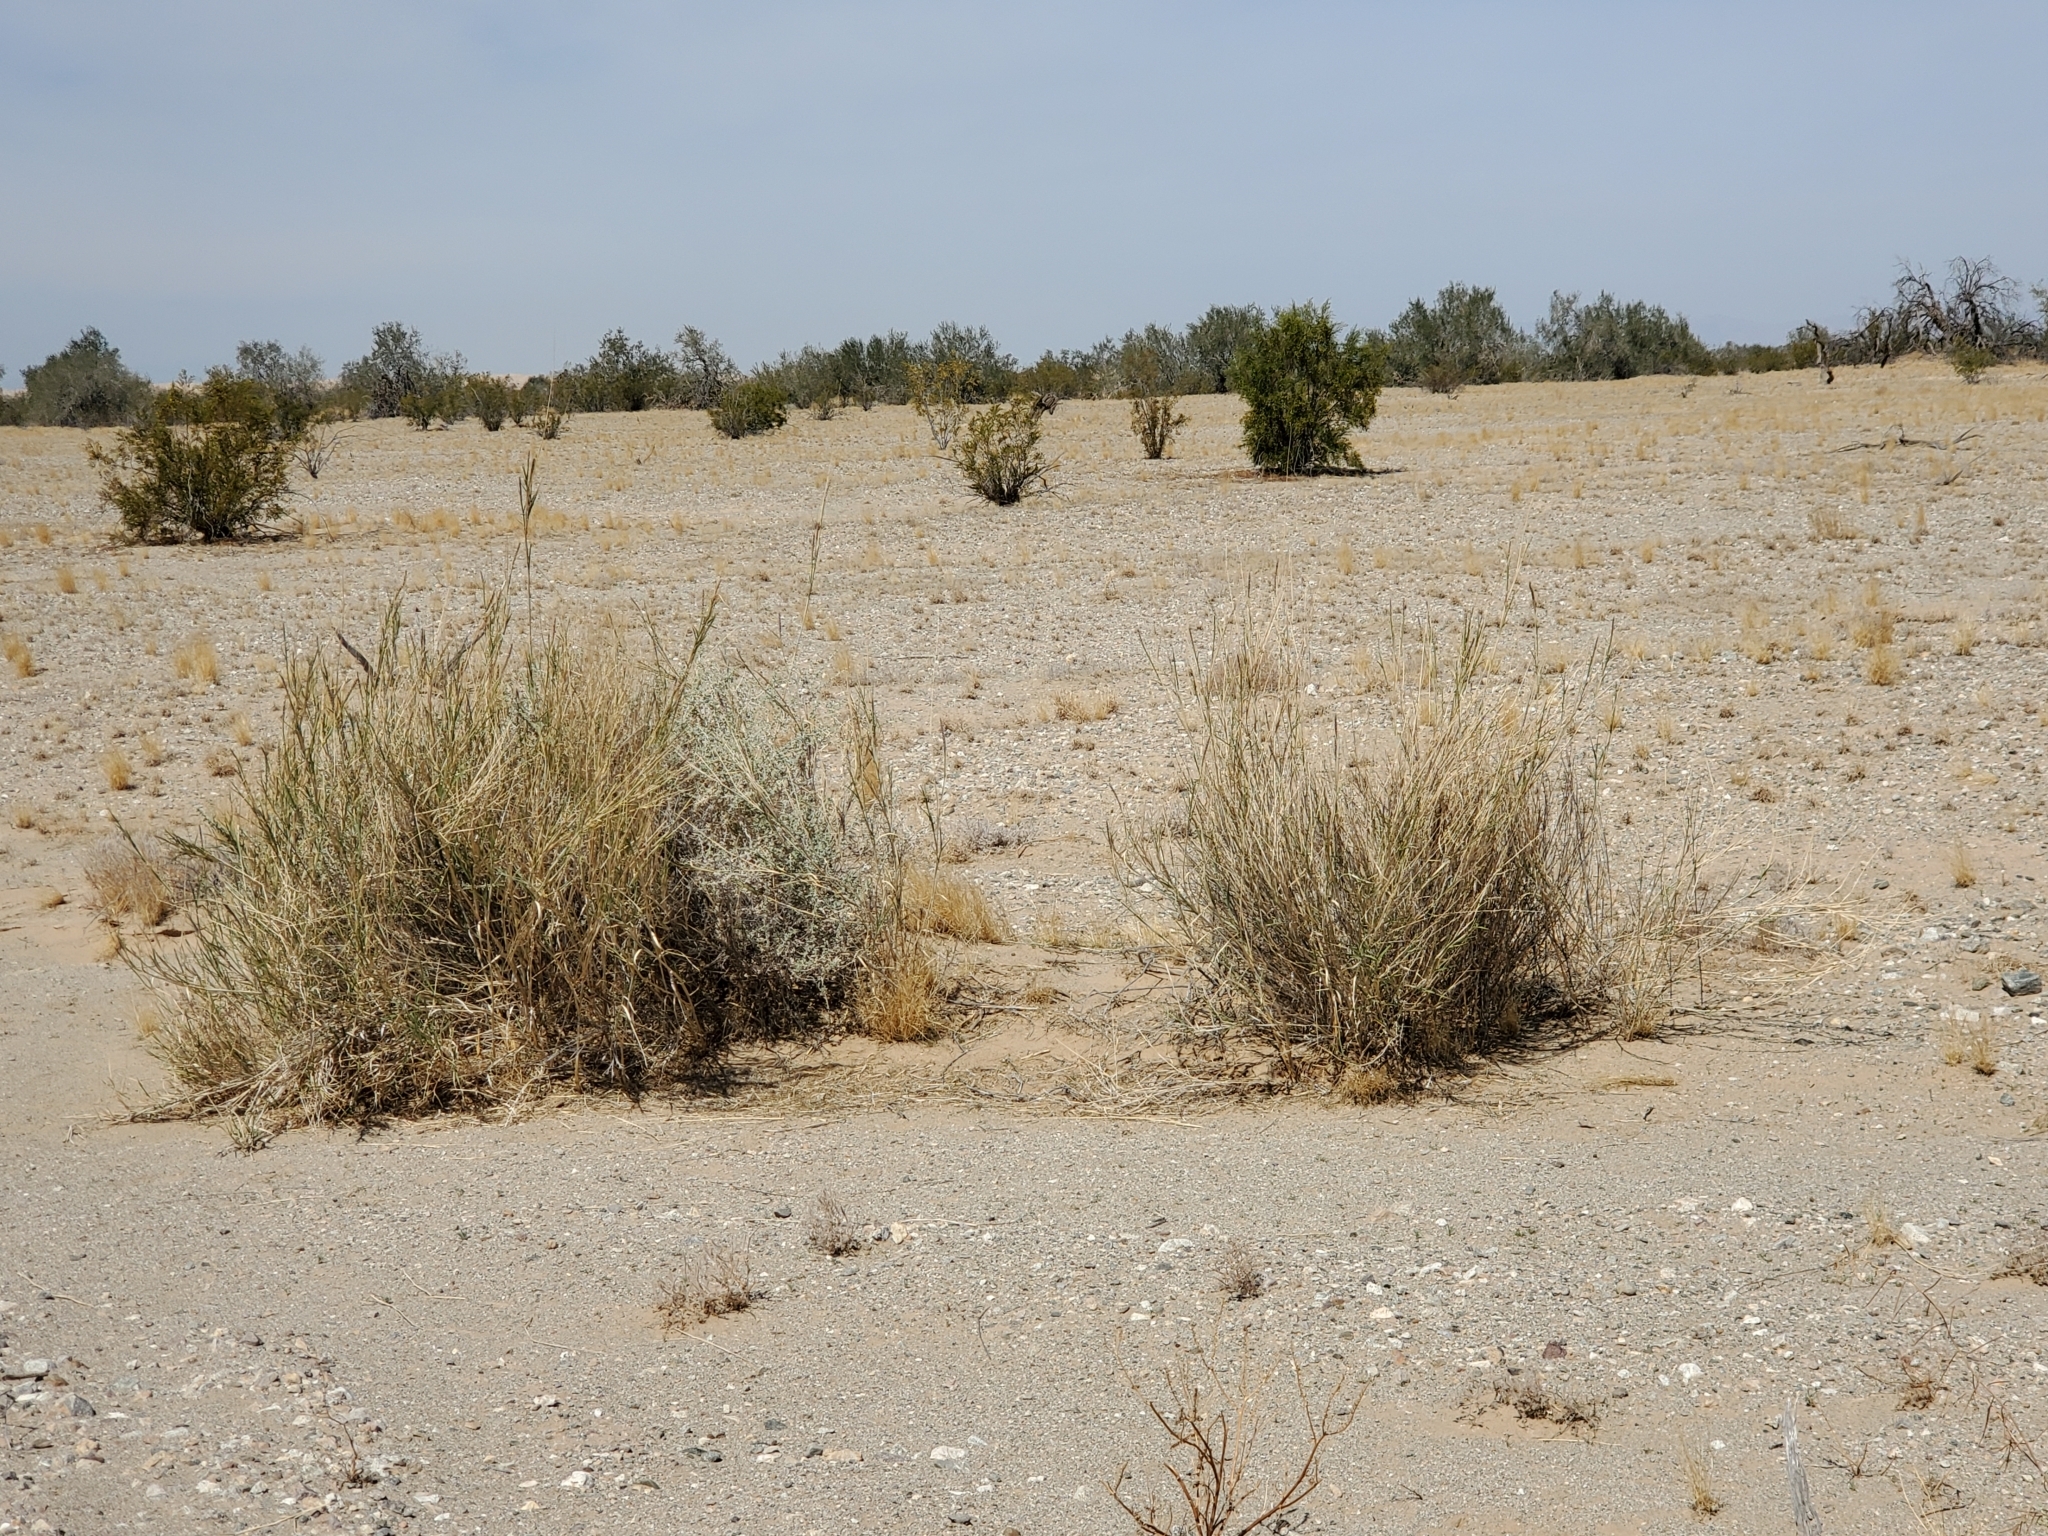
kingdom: Plantae
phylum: Tracheophyta
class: Liliopsida
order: Poales
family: Poaceae
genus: Hilaria
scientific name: Hilaria rigida
